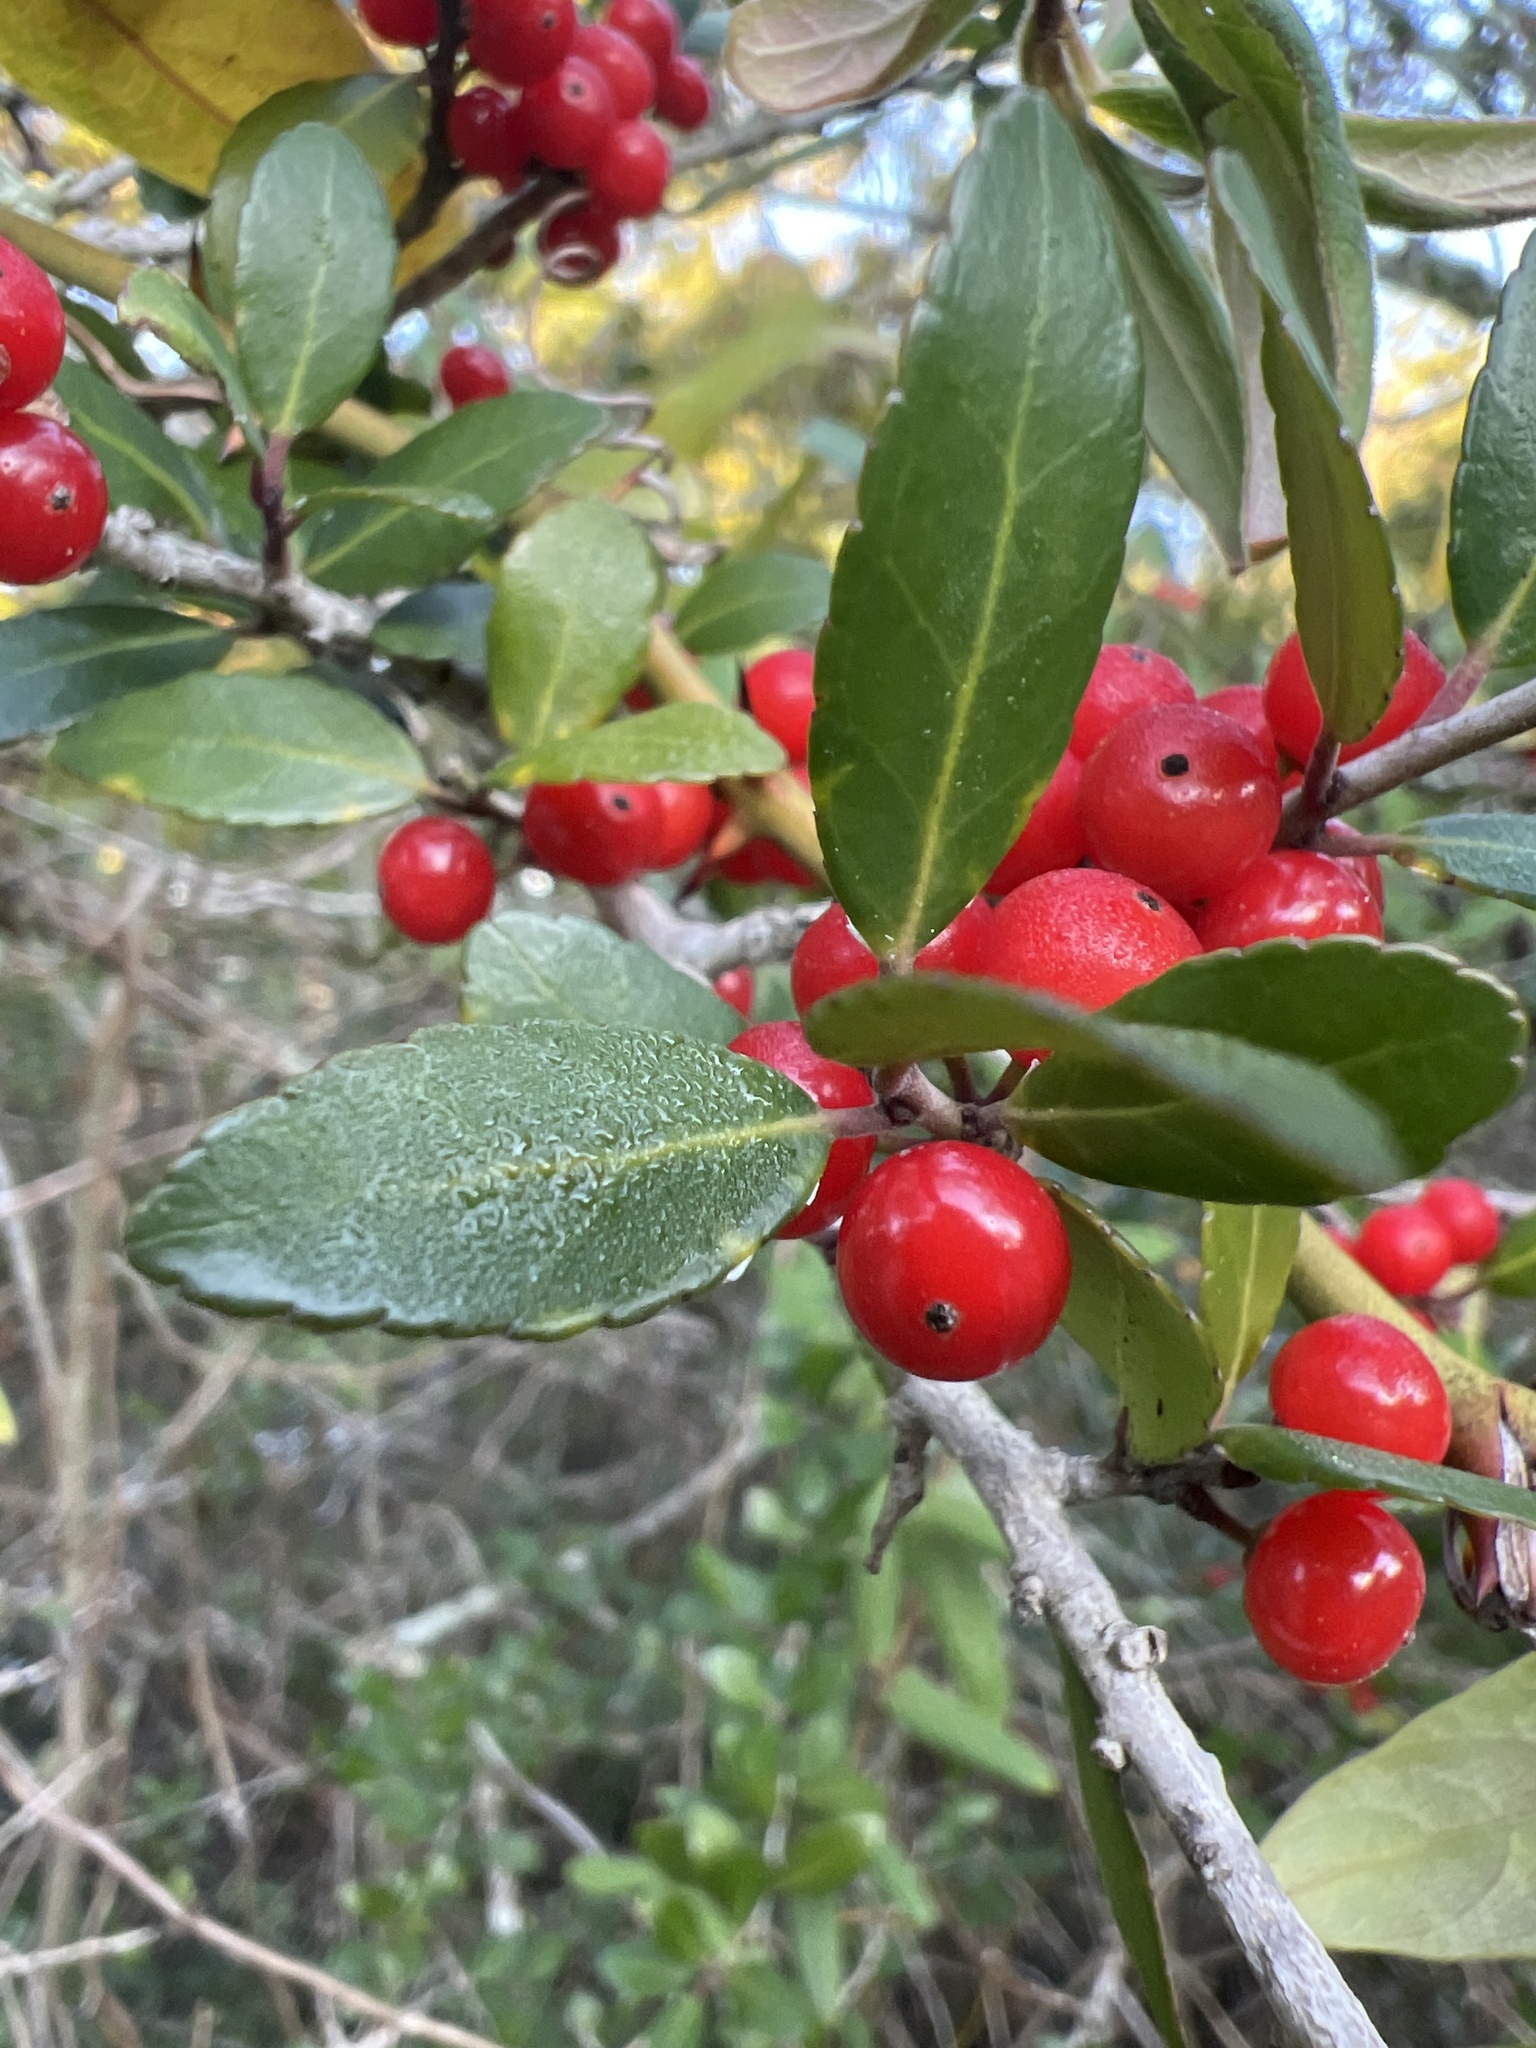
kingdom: Plantae
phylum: Tracheophyta
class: Magnoliopsida
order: Aquifoliales
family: Aquifoliaceae
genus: Ilex
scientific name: Ilex vomitoria
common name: Yaupon holly
